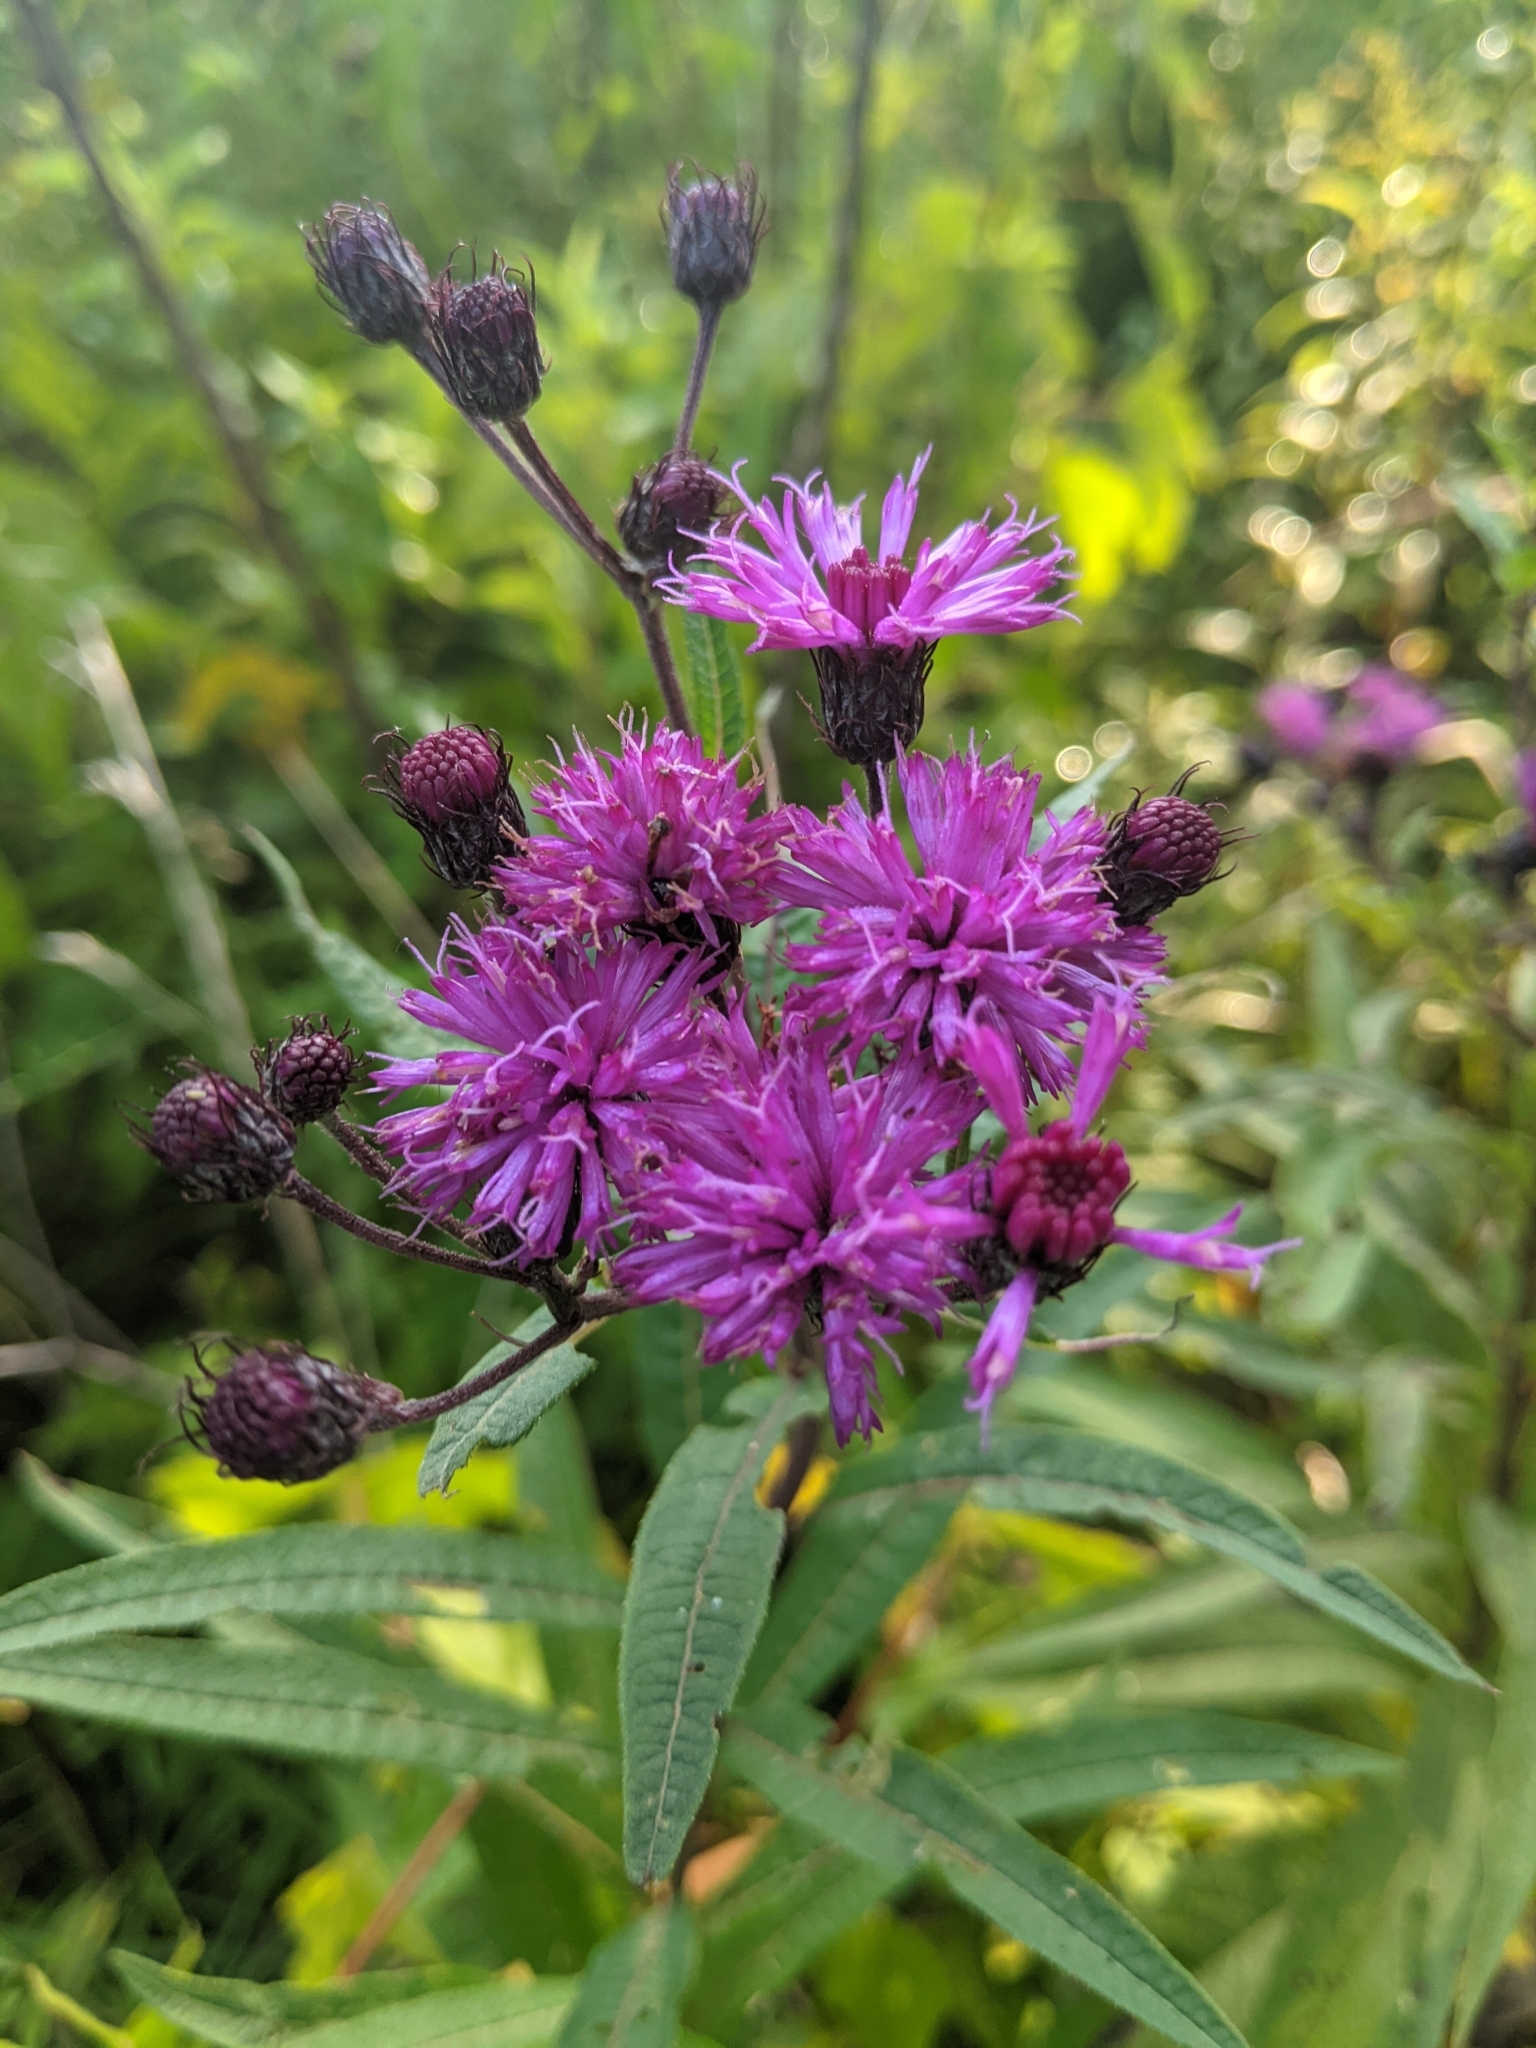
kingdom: Plantae
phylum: Tracheophyta
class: Magnoliopsida
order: Asterales
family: Asteraceae
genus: Vernonia
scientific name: Vernonia noveboracensis
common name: New york ironweed
